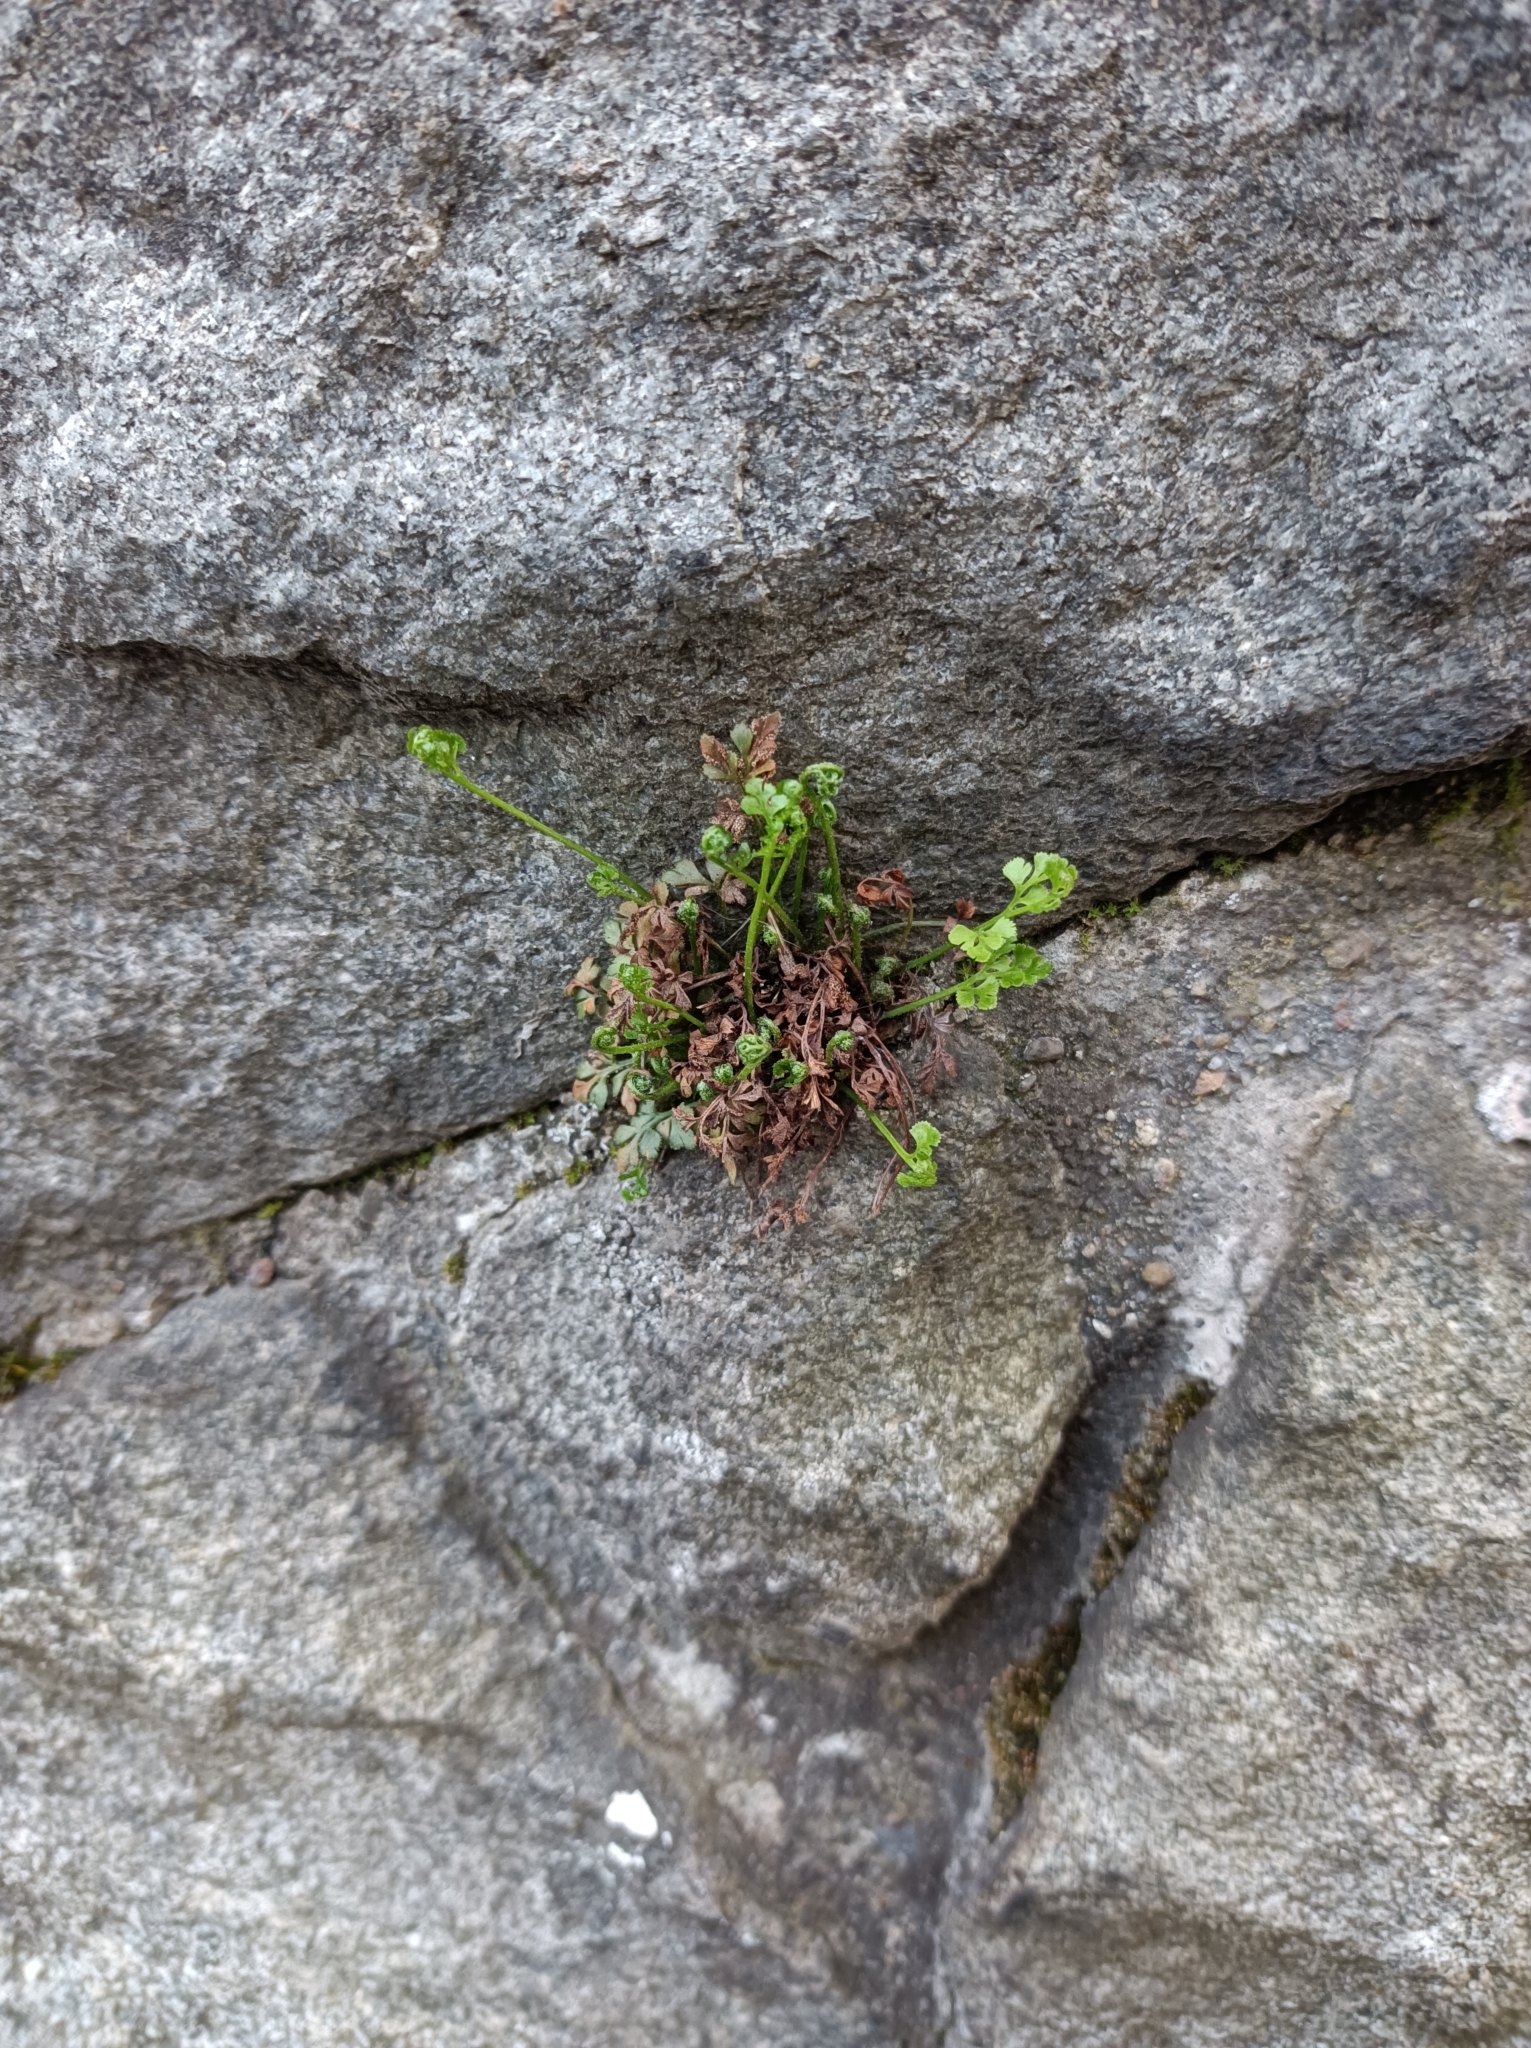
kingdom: Plantae
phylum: Tracheophyta
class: Polypodiopsida
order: Polypodiales
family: Aspleniaceae
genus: Asplenium
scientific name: Asplenium ruta-muraria
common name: Wall-rue
